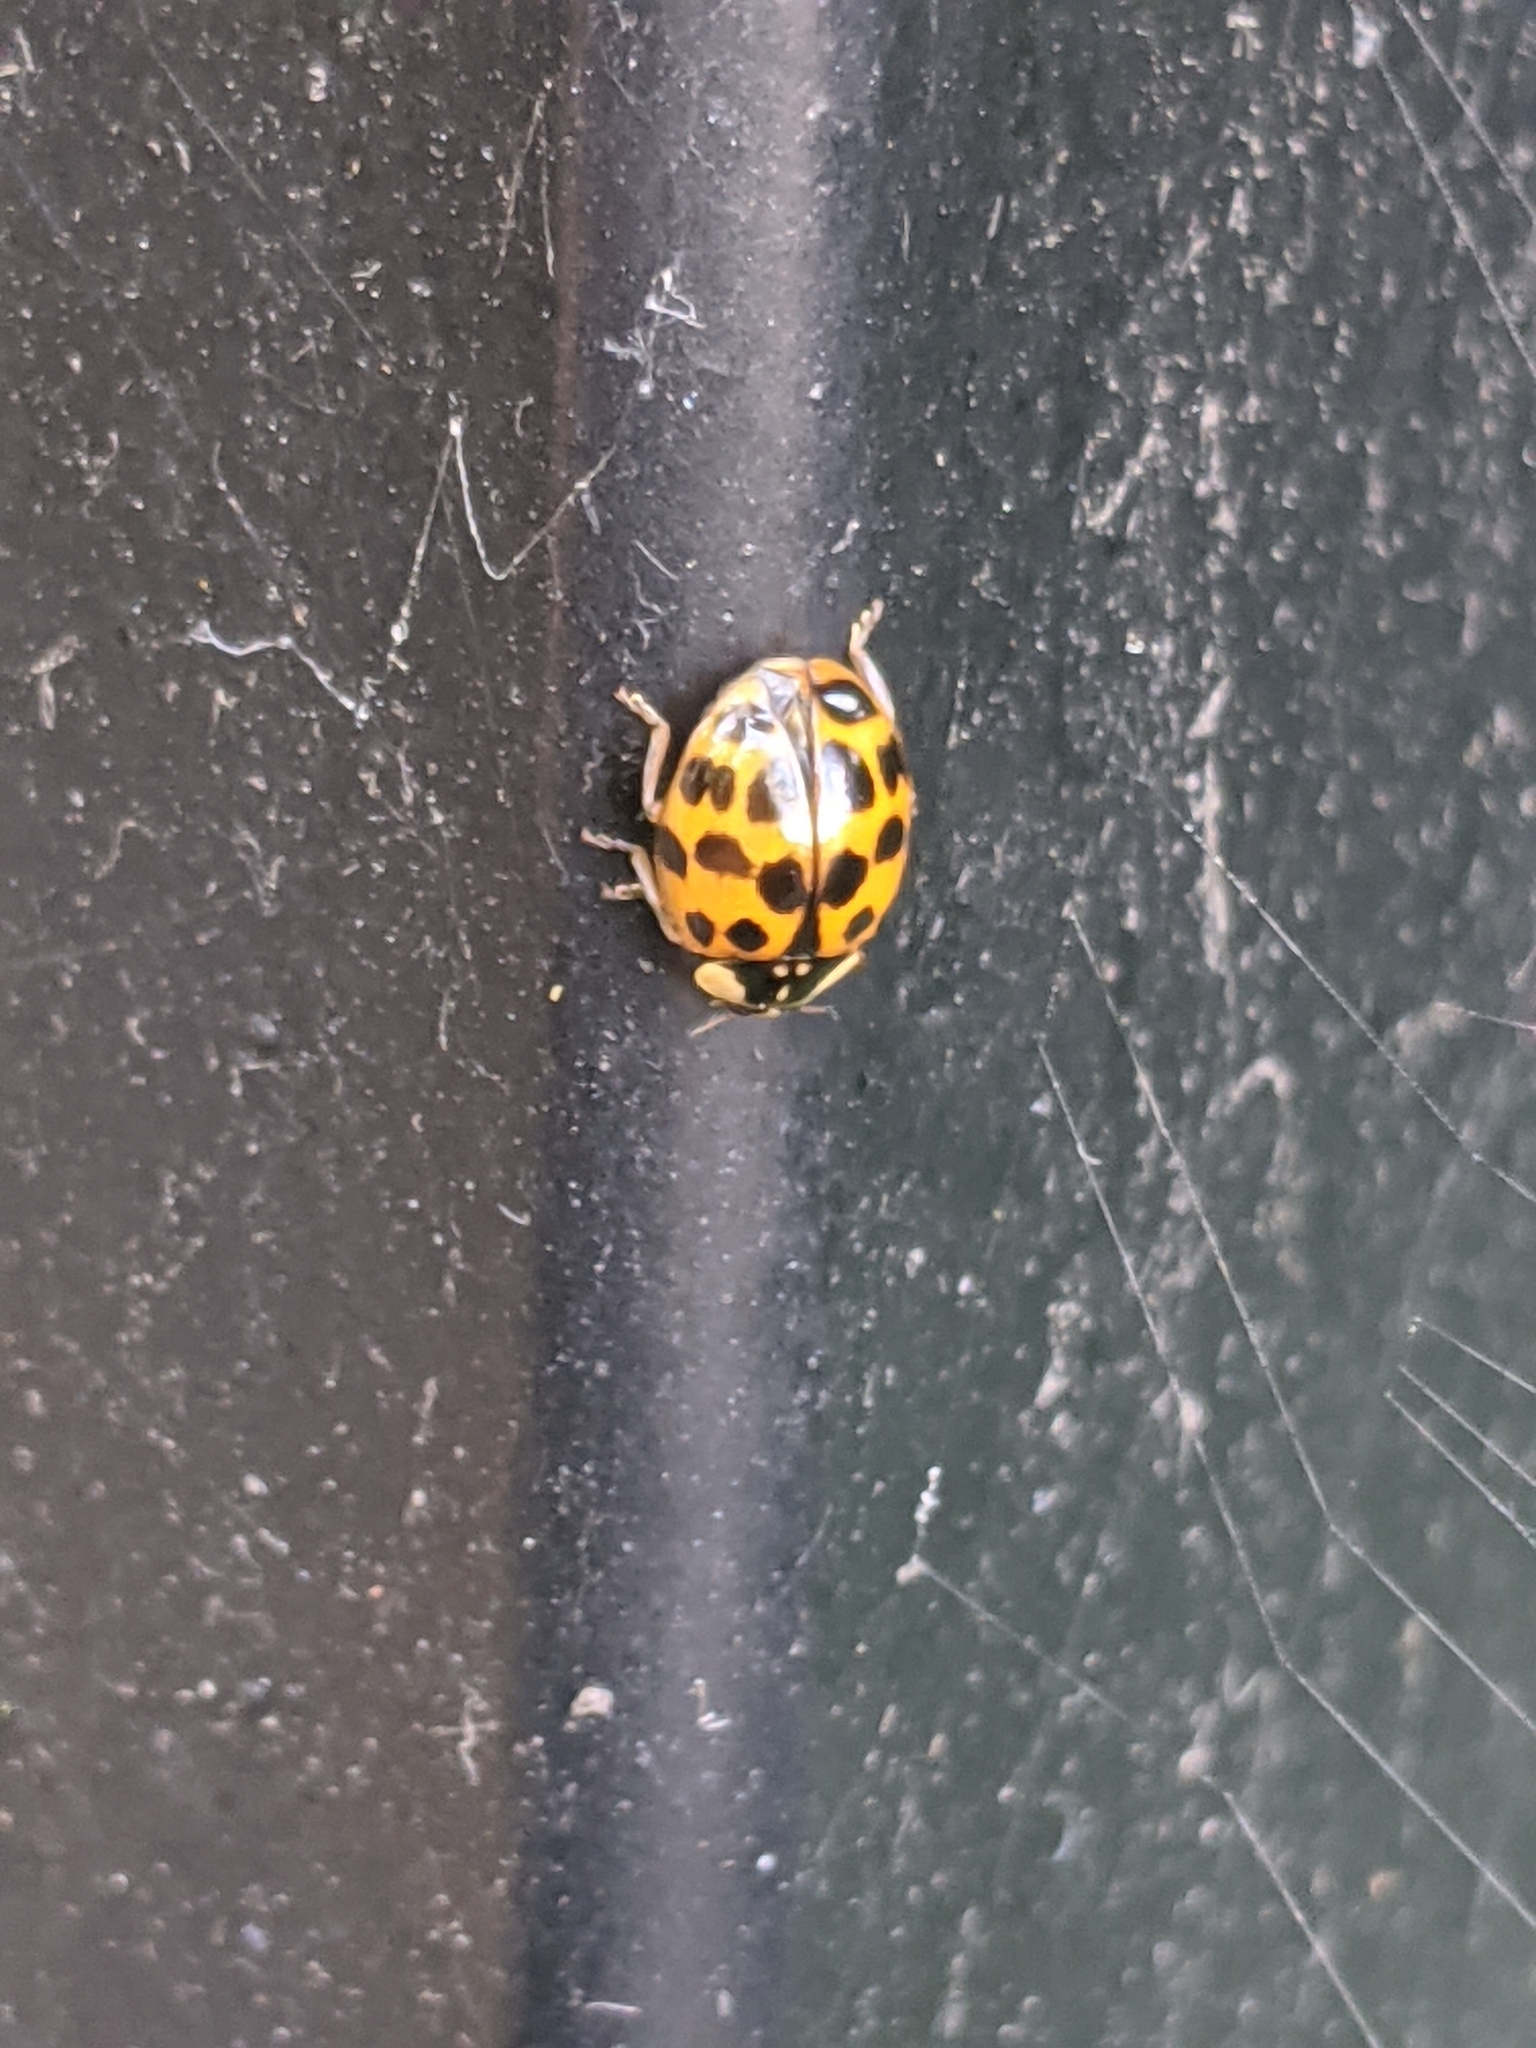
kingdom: Animalia
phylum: Arthropoda
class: Insecta
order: Coleoptera
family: Coccinellidae
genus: Harmonia
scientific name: Harmonia axyridis
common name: Harlequin ladybird
